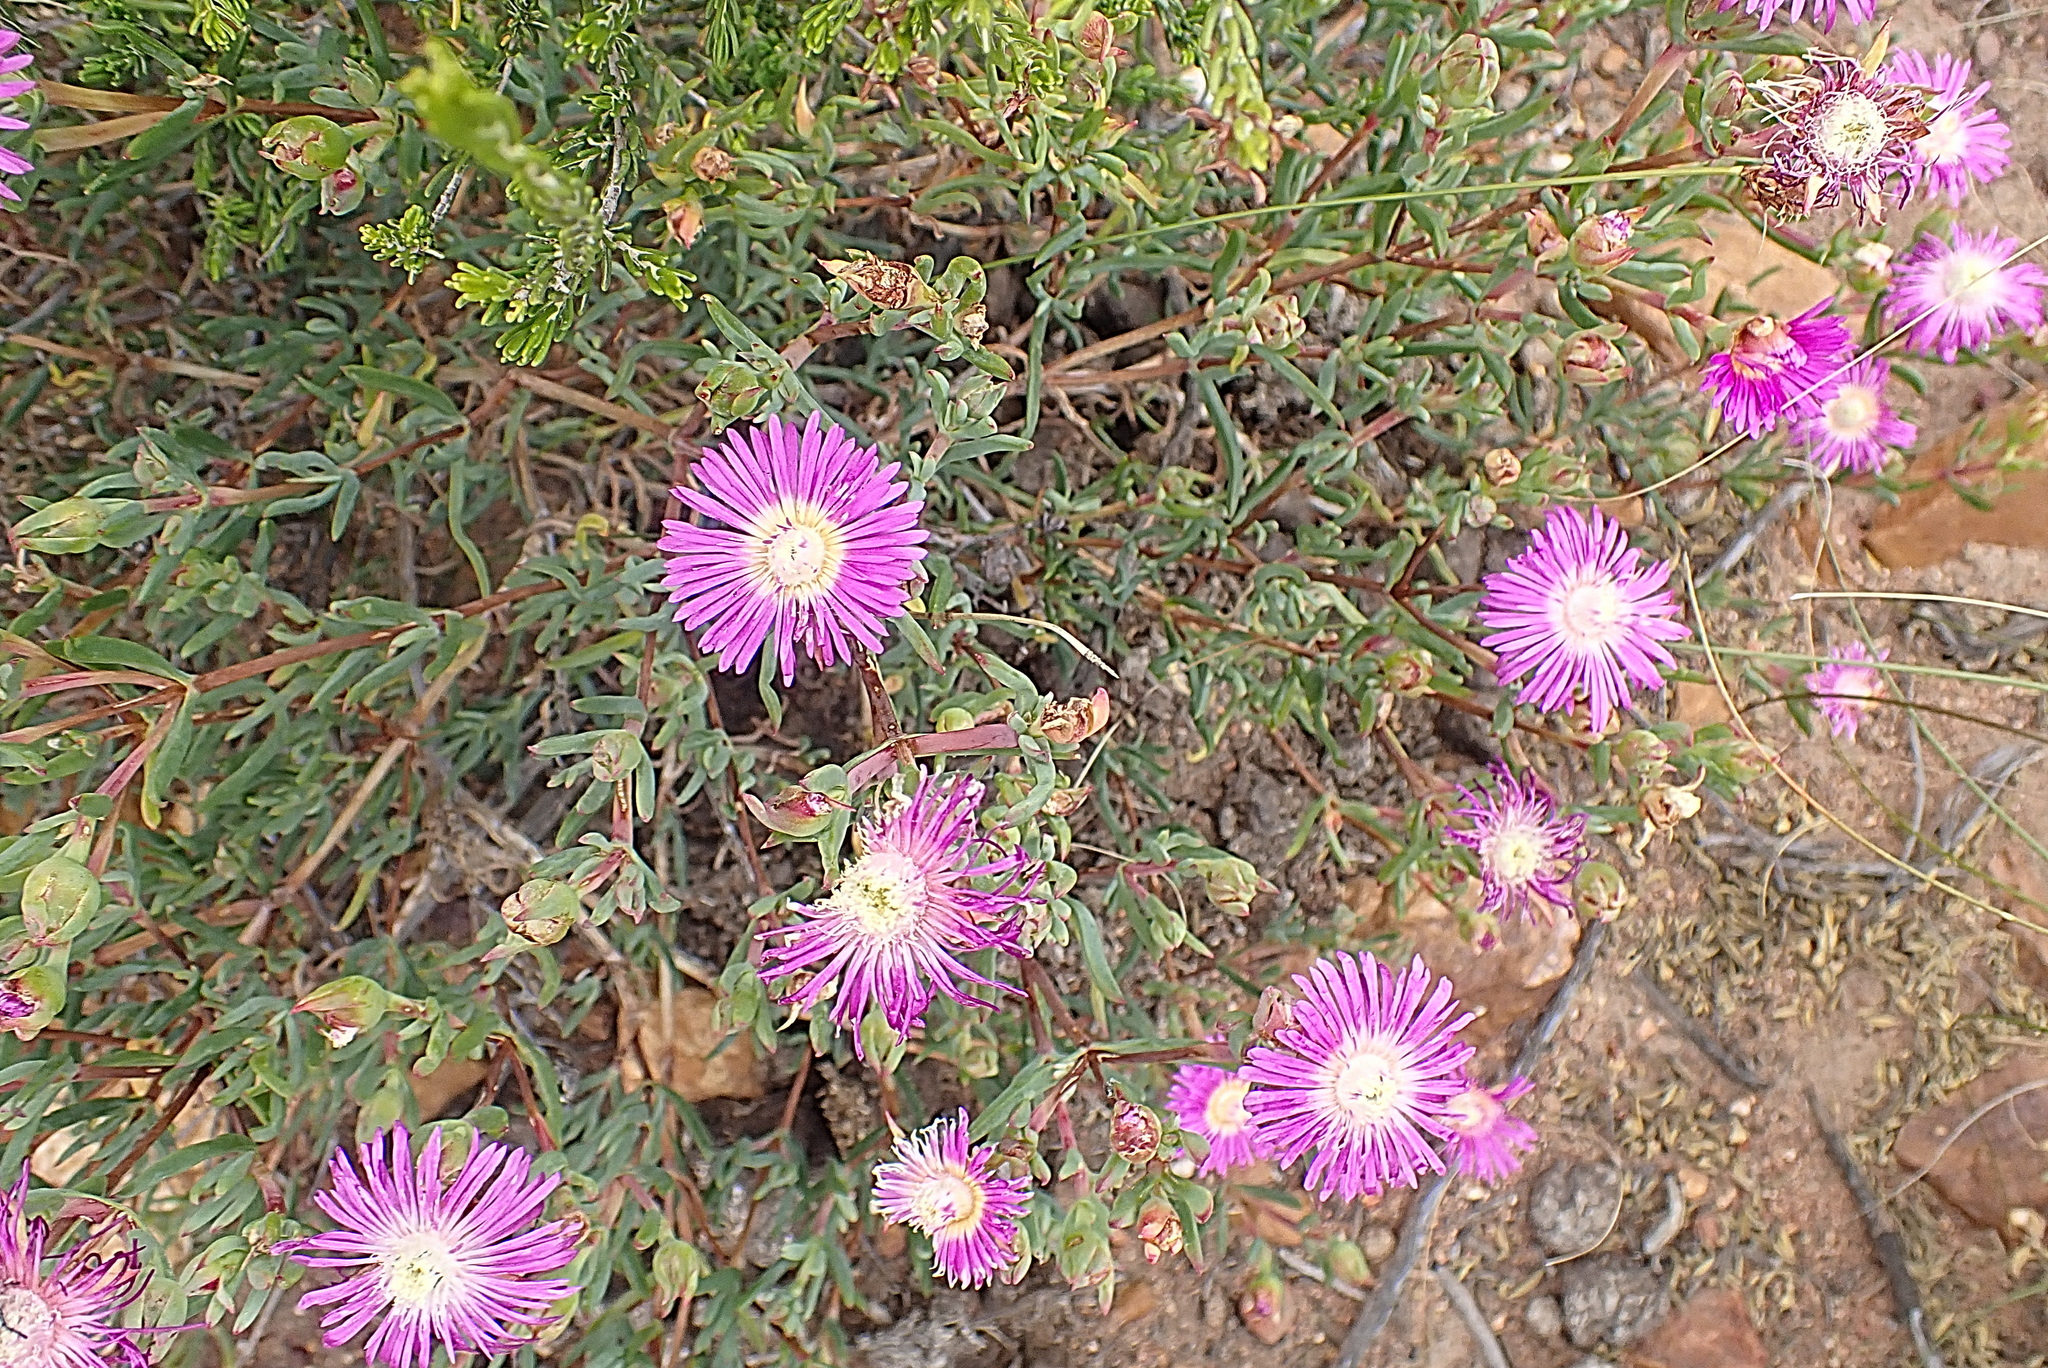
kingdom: Plantae
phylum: Tracheophyta
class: Magnoliopsida
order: Caryophyllales
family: Aizoaceae
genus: Smicrostigma
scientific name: Smicrostigma viride
